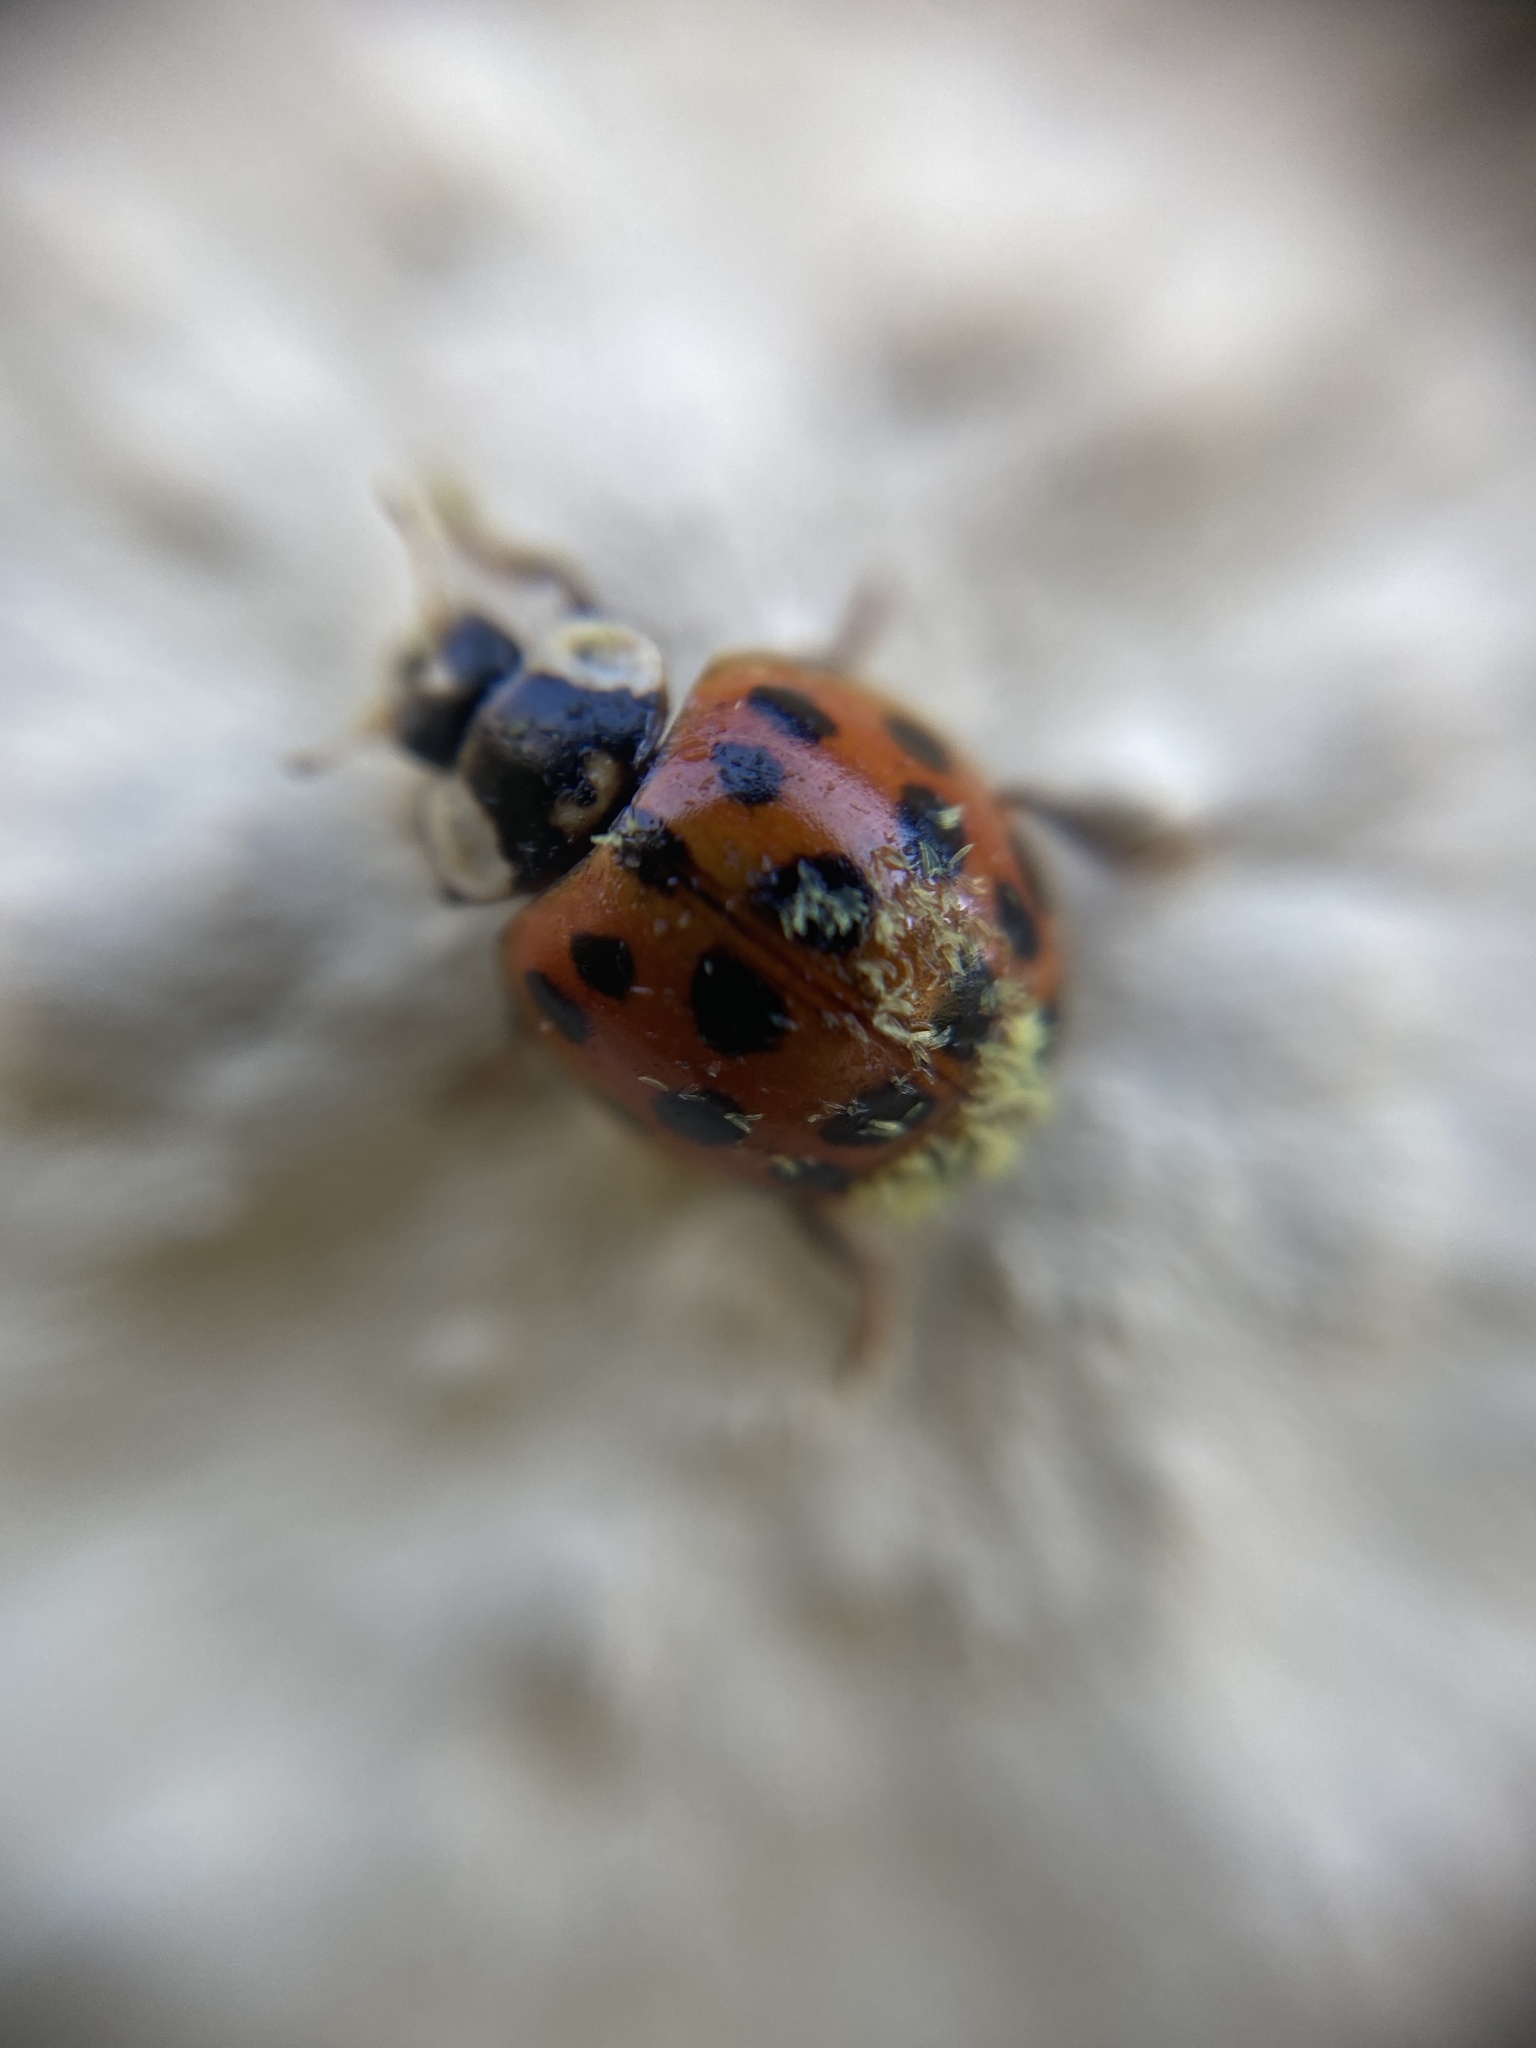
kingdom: Fungi
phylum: Ascomycota
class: Laboulbeniomycetes
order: Laboulbeniales
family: Laboulbeniaceae
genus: Hesperomyces
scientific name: Hesperomyces harmoniae
